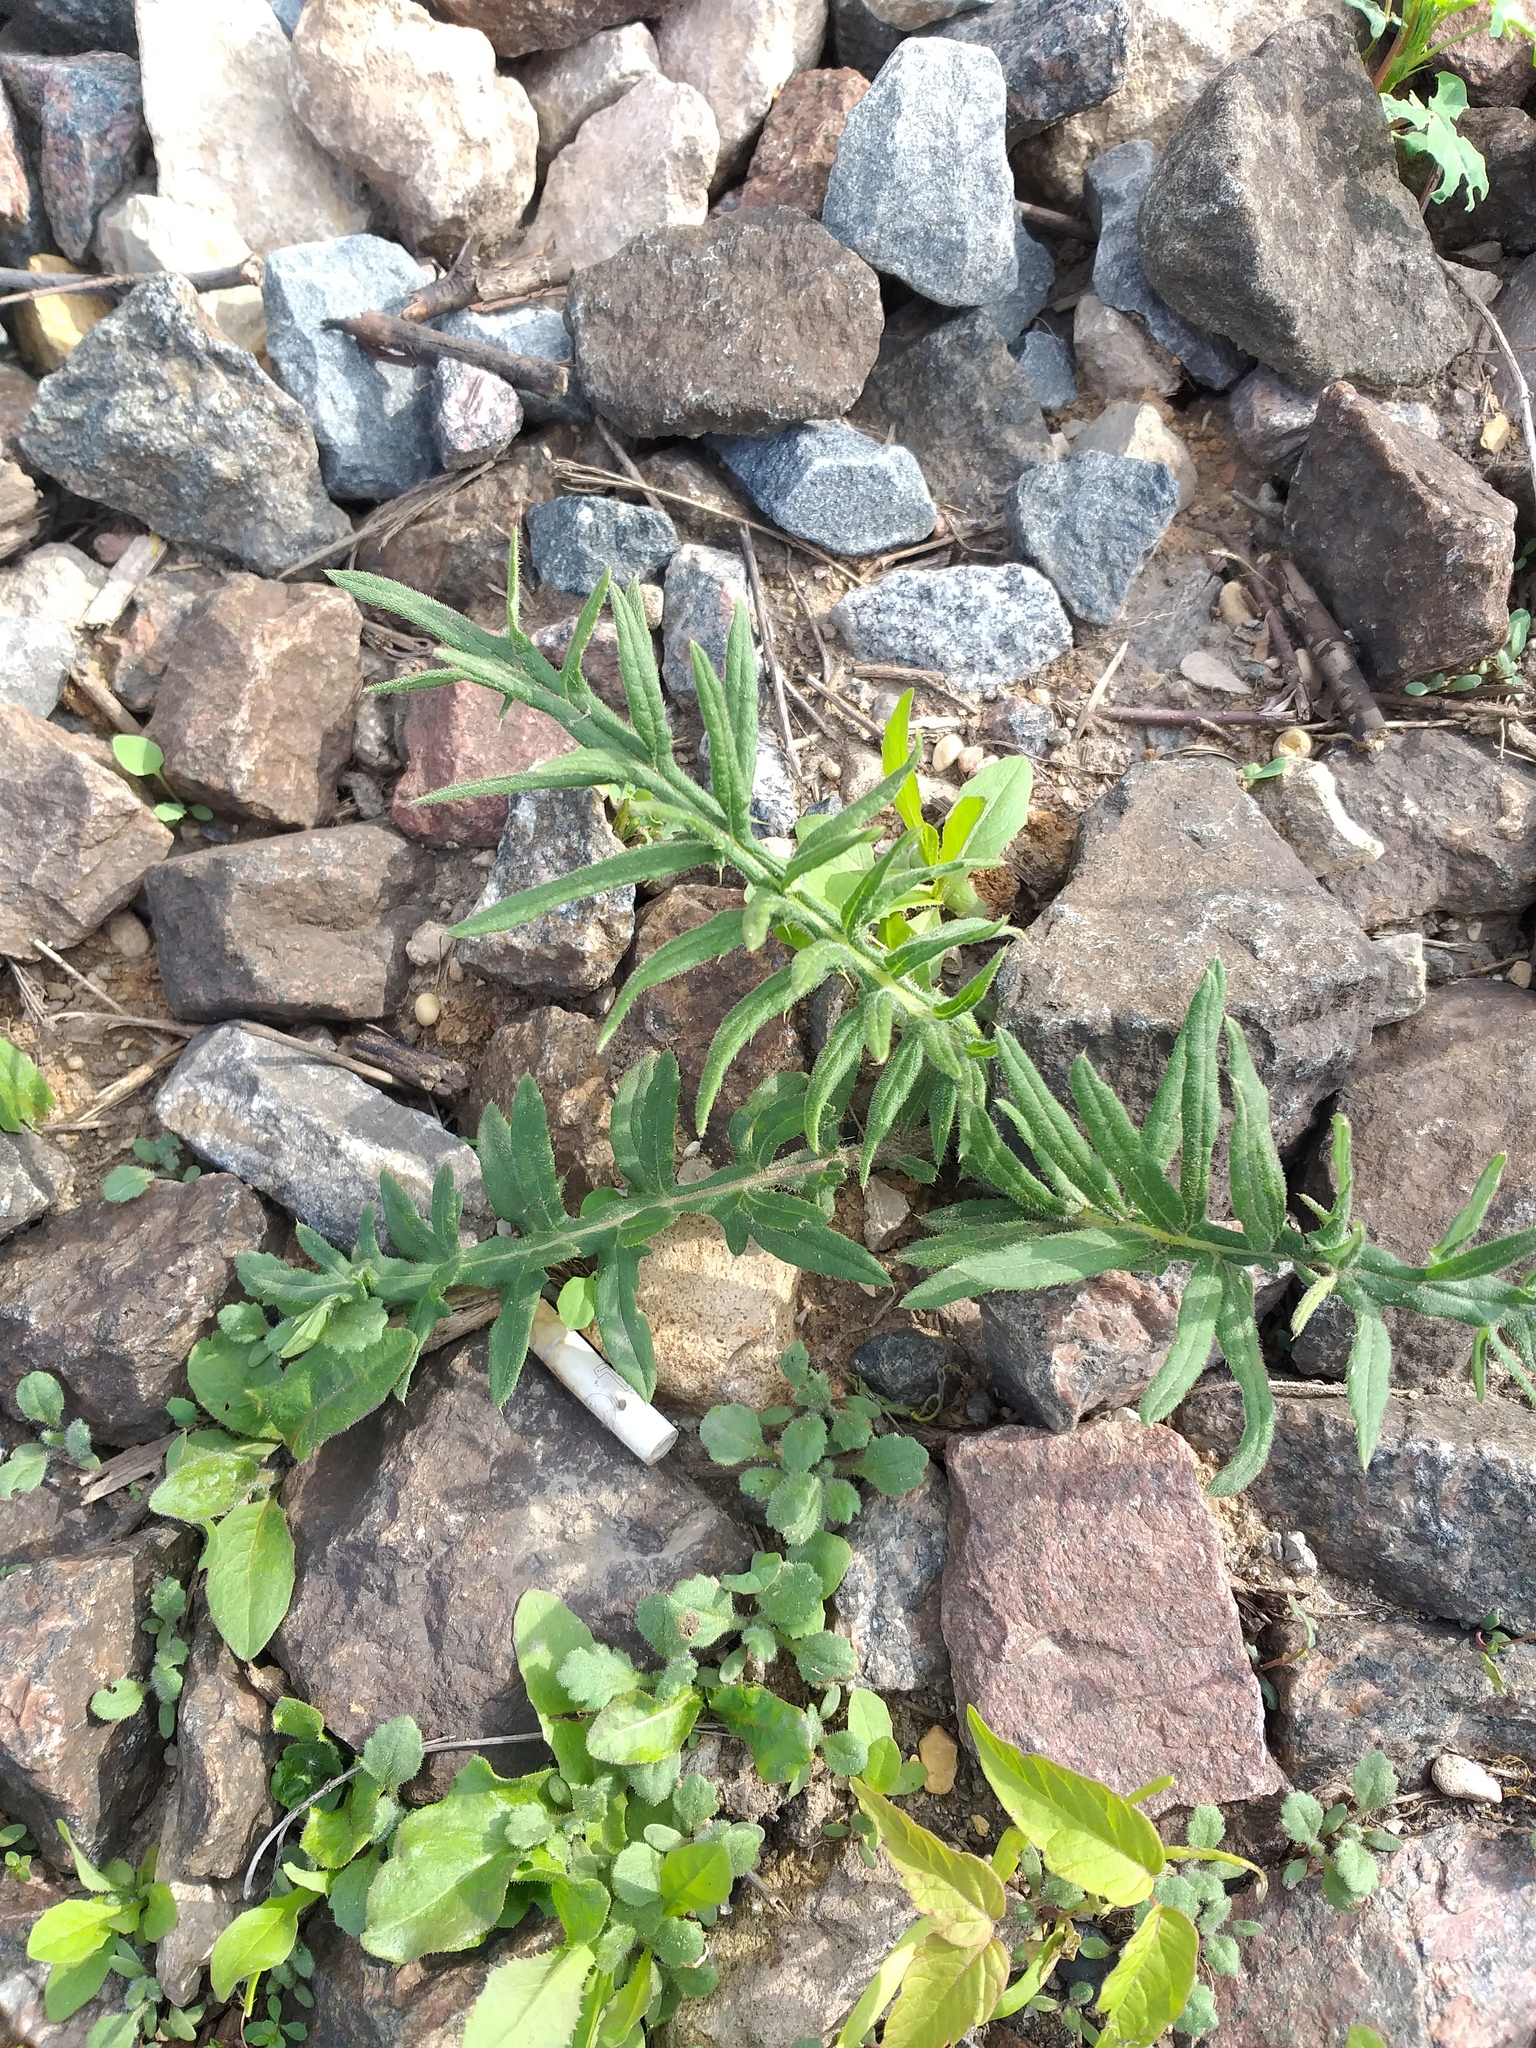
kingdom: Plantae
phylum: Tracheophyta
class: Magnoliopsida
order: Asterales
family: Asteraceae
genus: Lophiolepis
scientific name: Lophiolepis decussata
